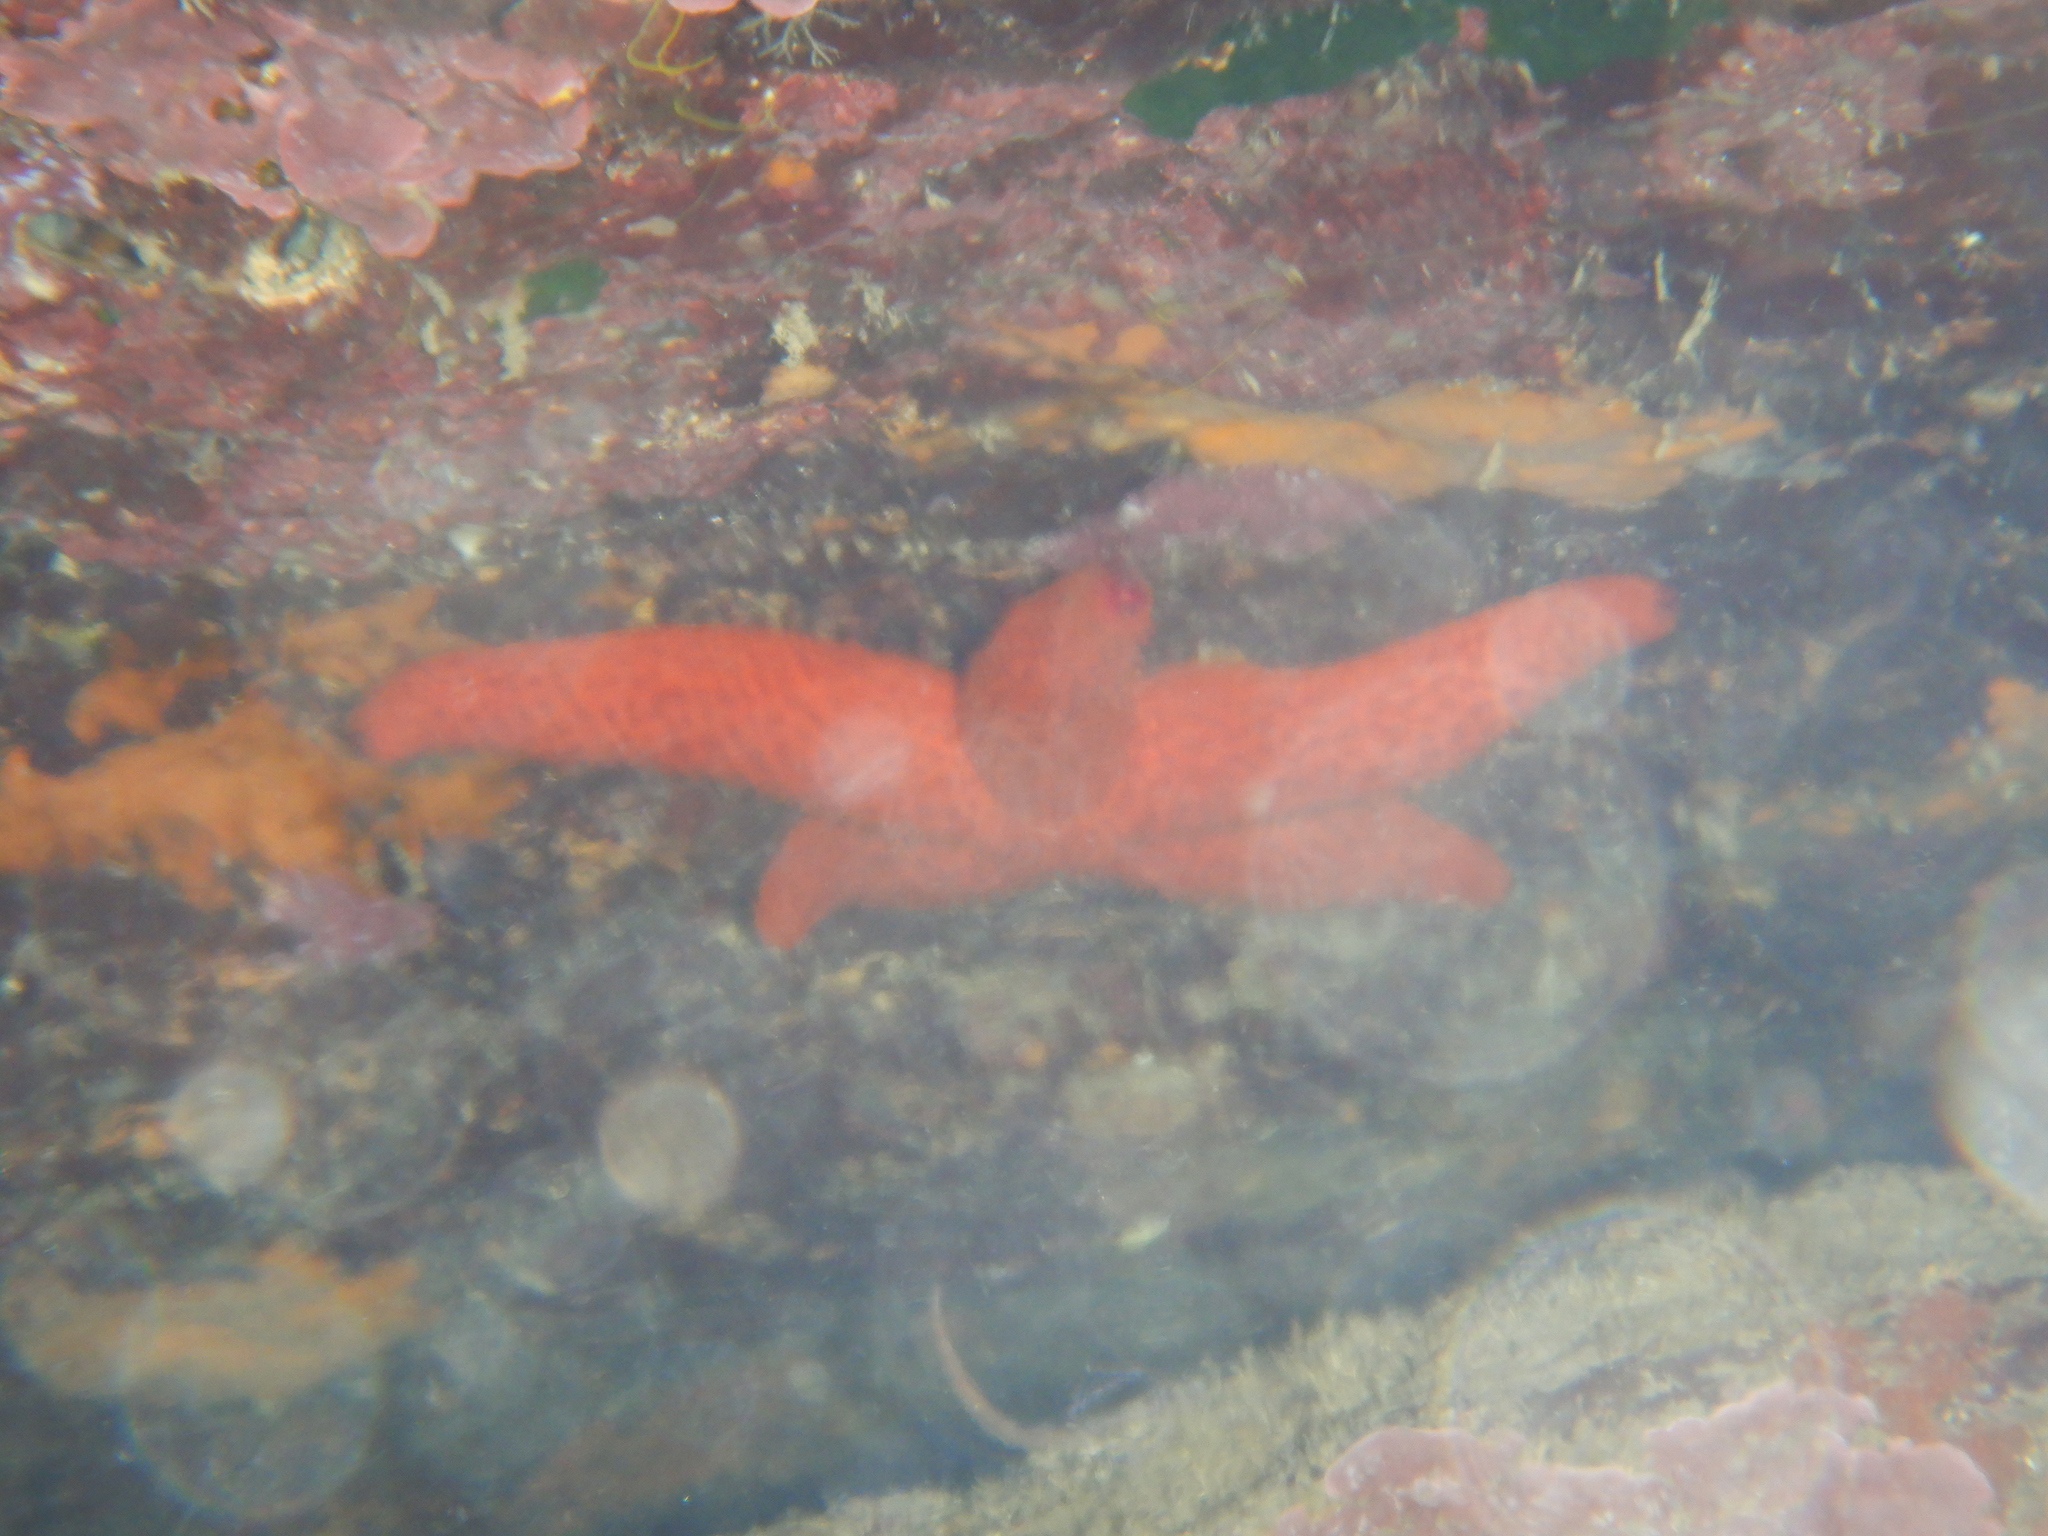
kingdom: Animalia
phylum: Echinodermata
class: Asteroidea
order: Spinulosida
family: Echinasteridae
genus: Echinaster
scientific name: Echinaster sepositus
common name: Red starfish
